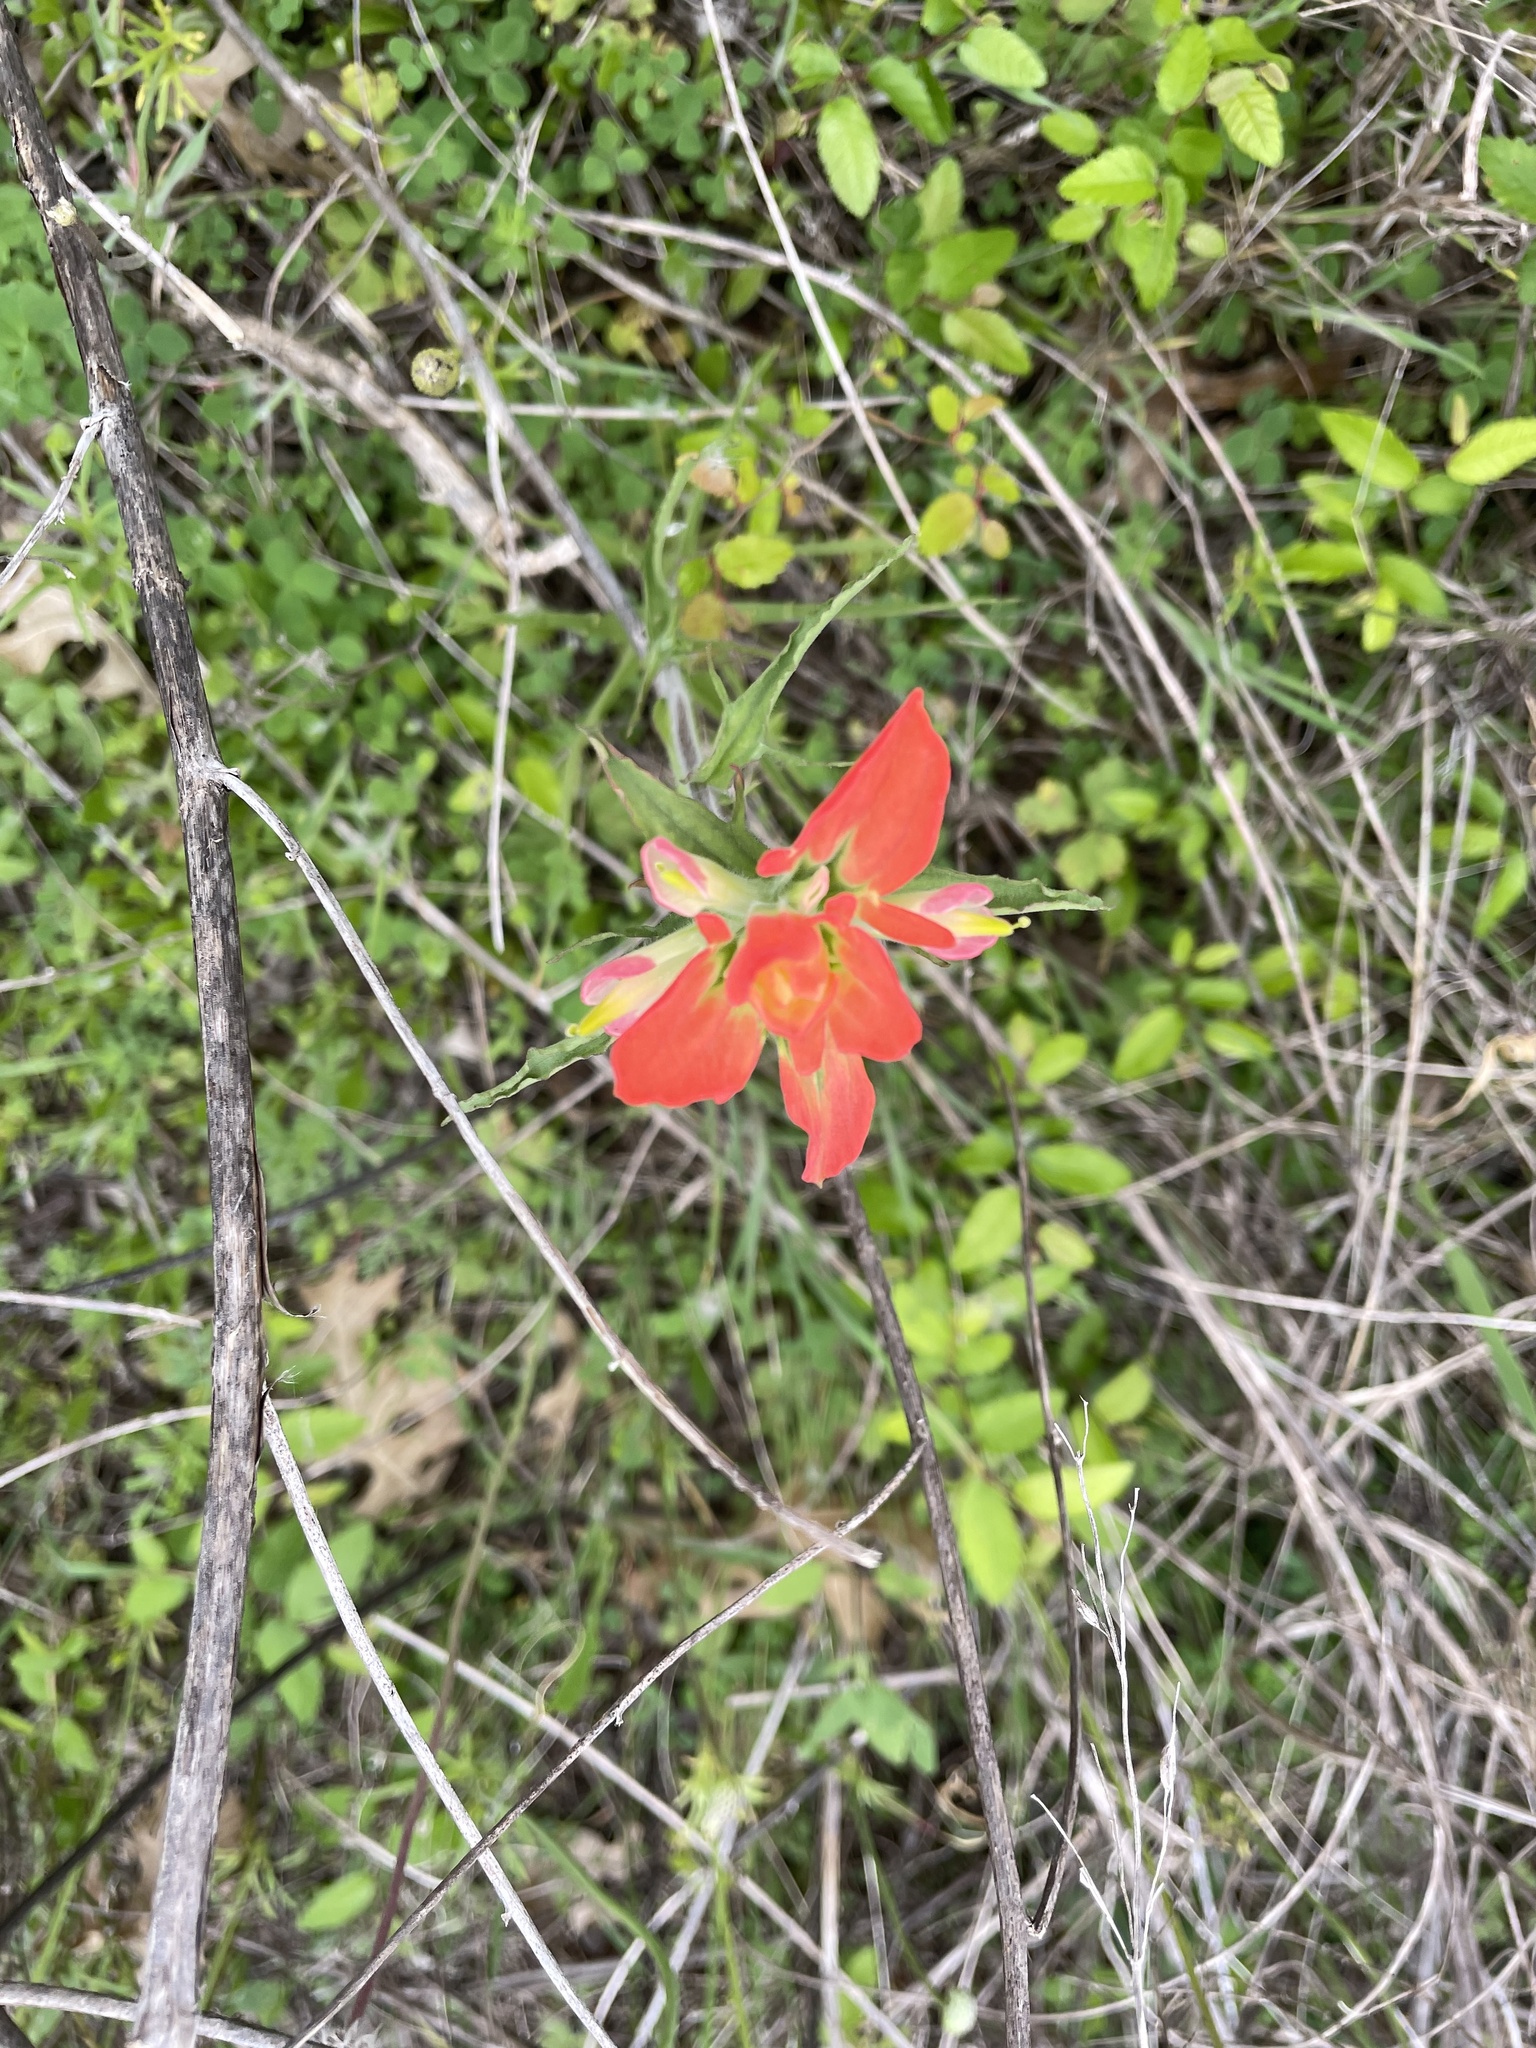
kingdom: Plantae
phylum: Tracheophyta
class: Magnoliopsida
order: Lamiales
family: Orobanchaceae
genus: Castilleja
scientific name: Castilleja indivisa
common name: Texas paintbrush
